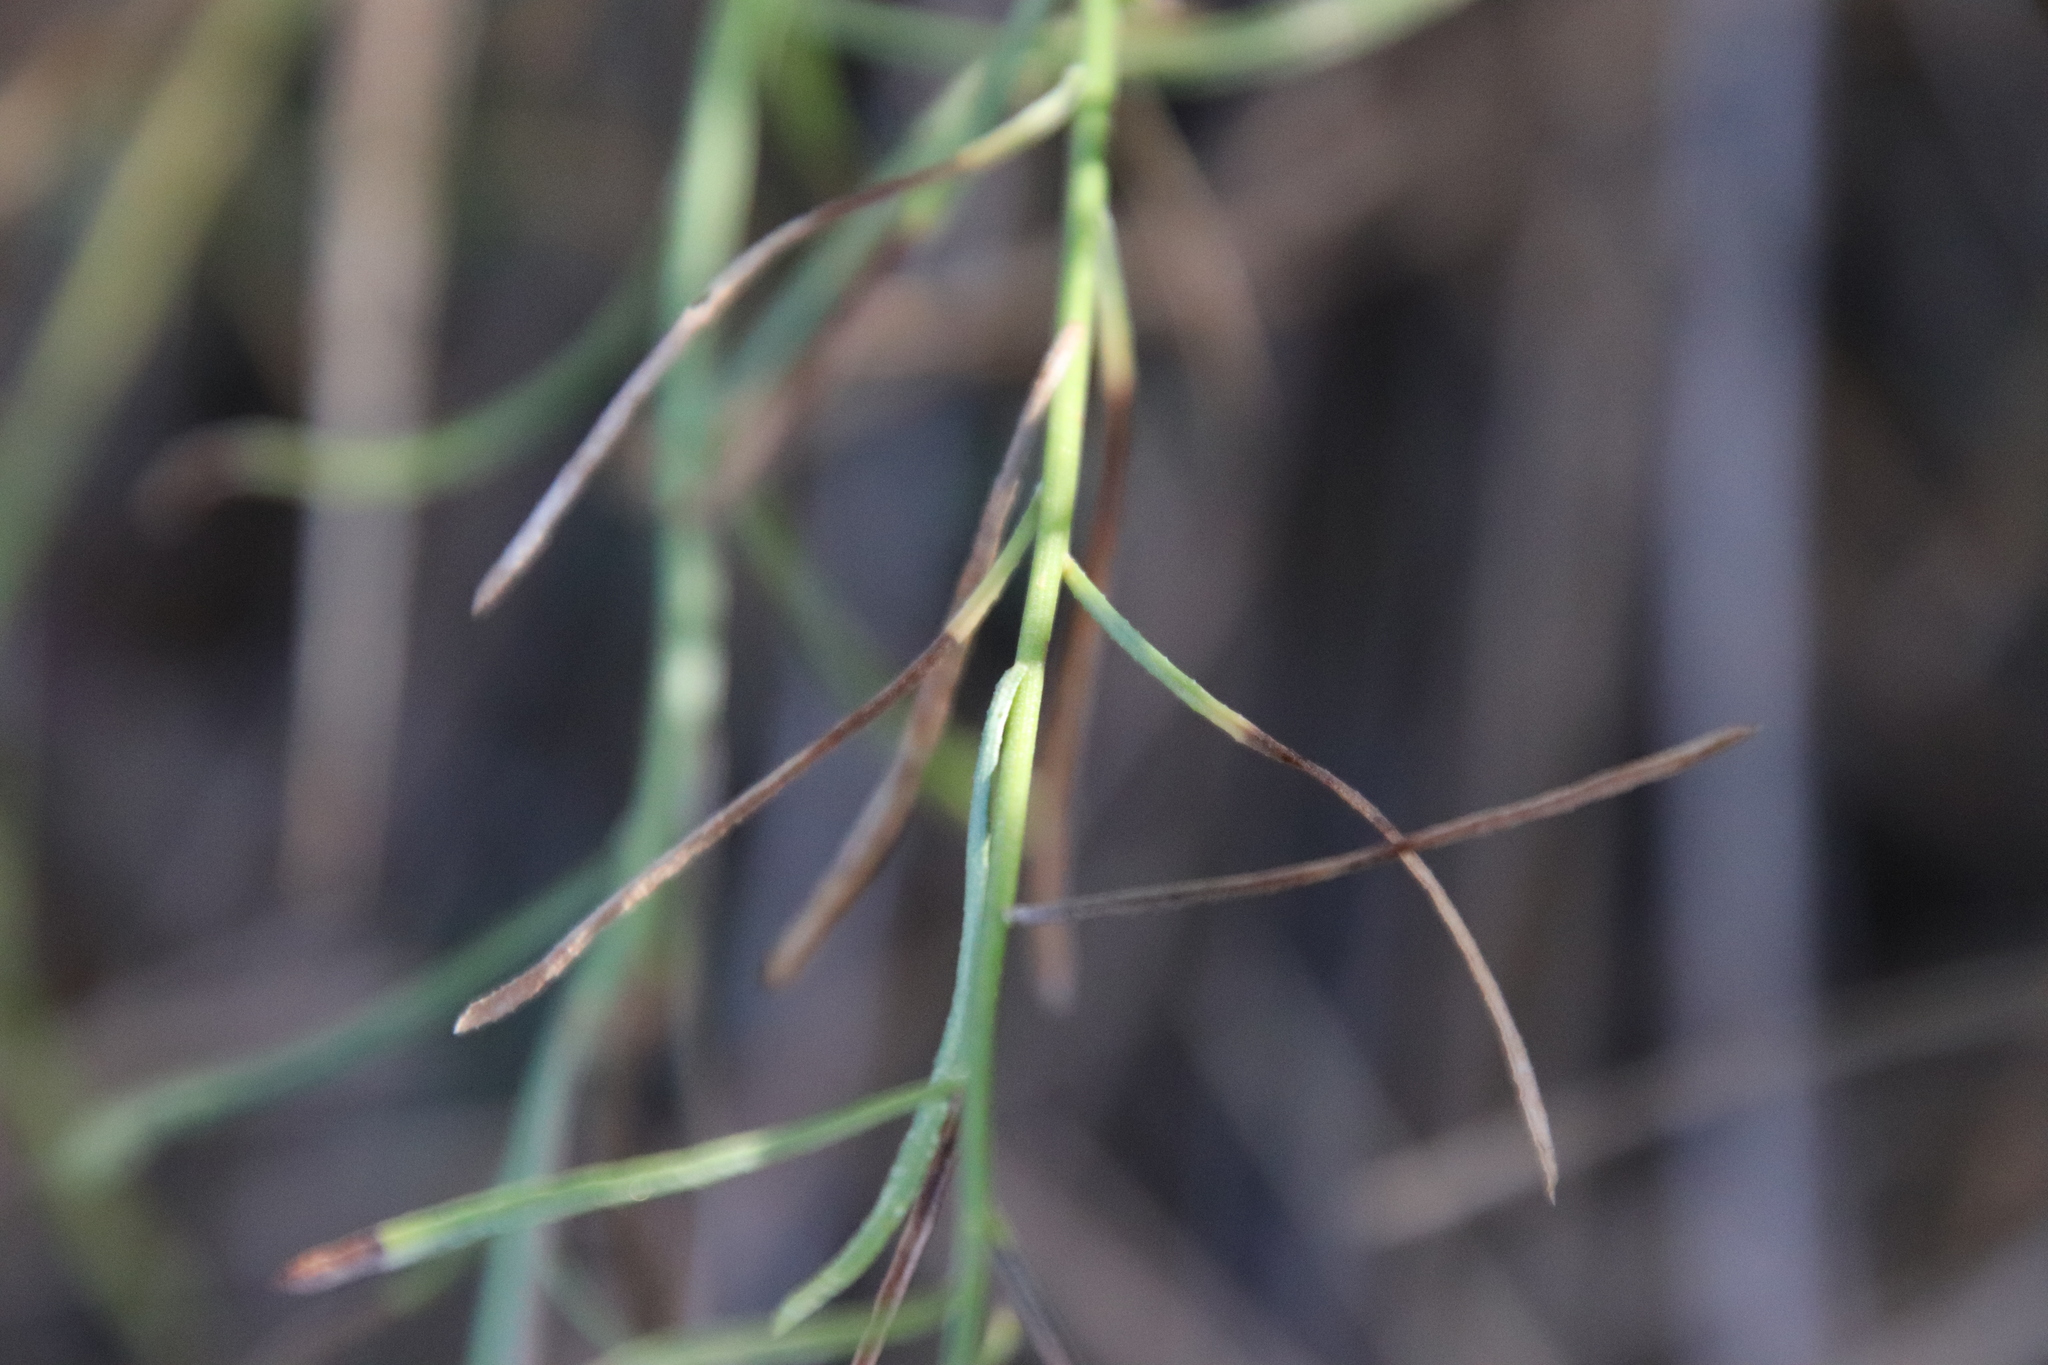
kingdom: Plantae
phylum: Tracheophyta
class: Magnoliopsida
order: Asterales
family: Asteraceae
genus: Erigeron
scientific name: Erigeron foliosus
